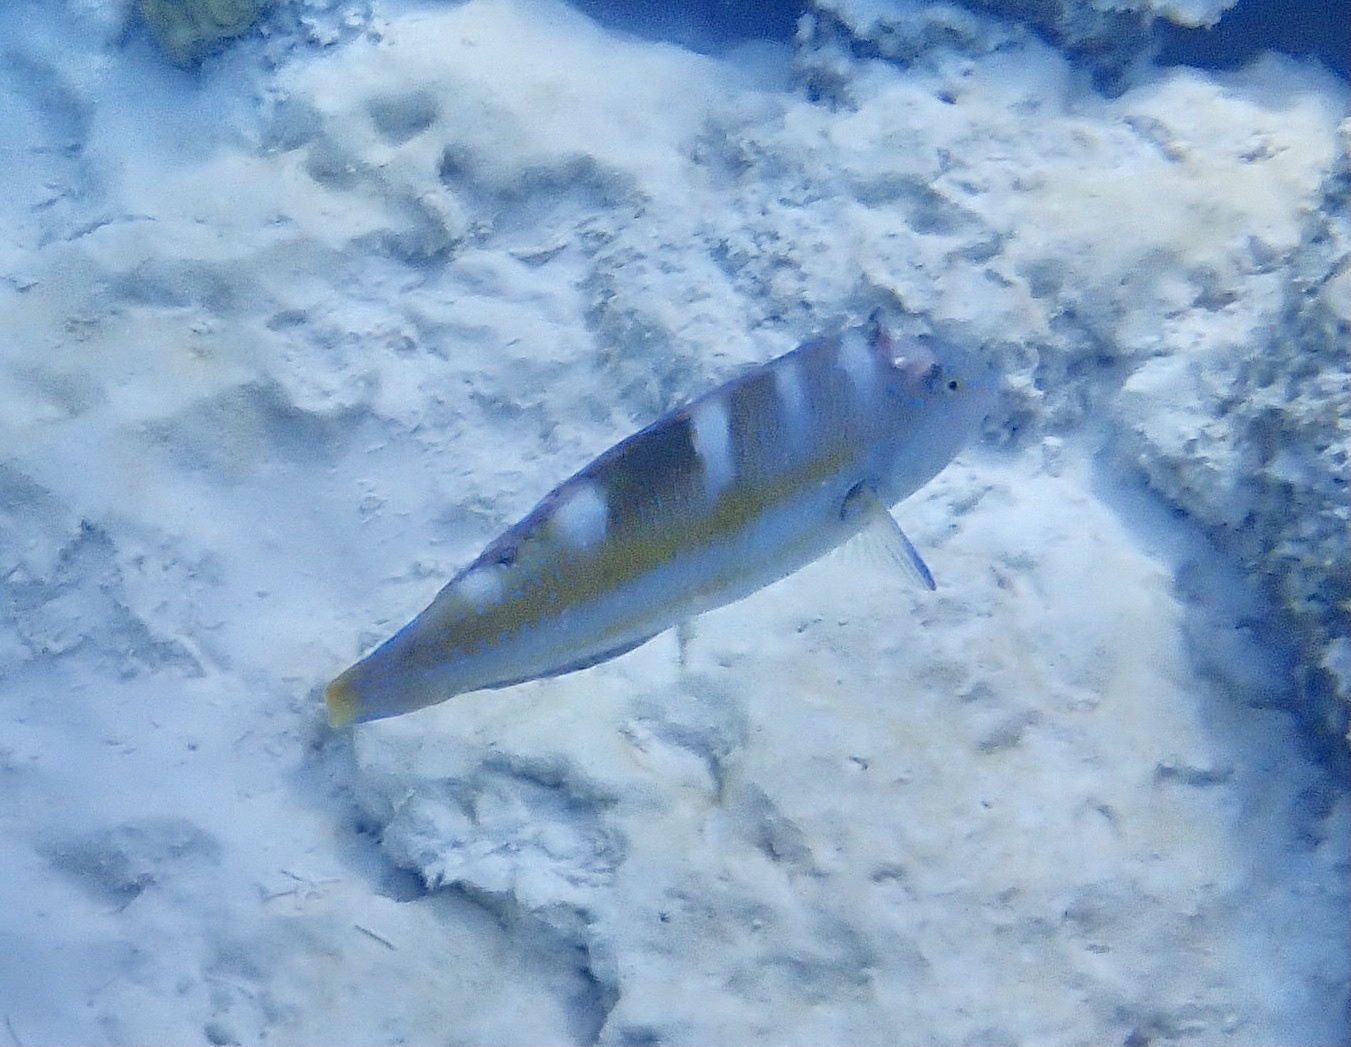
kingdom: Animalia
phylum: Chordata
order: Perciformes
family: Labridae
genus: Halichoeres
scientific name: Halichoeres radiatus
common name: Puddingwife
